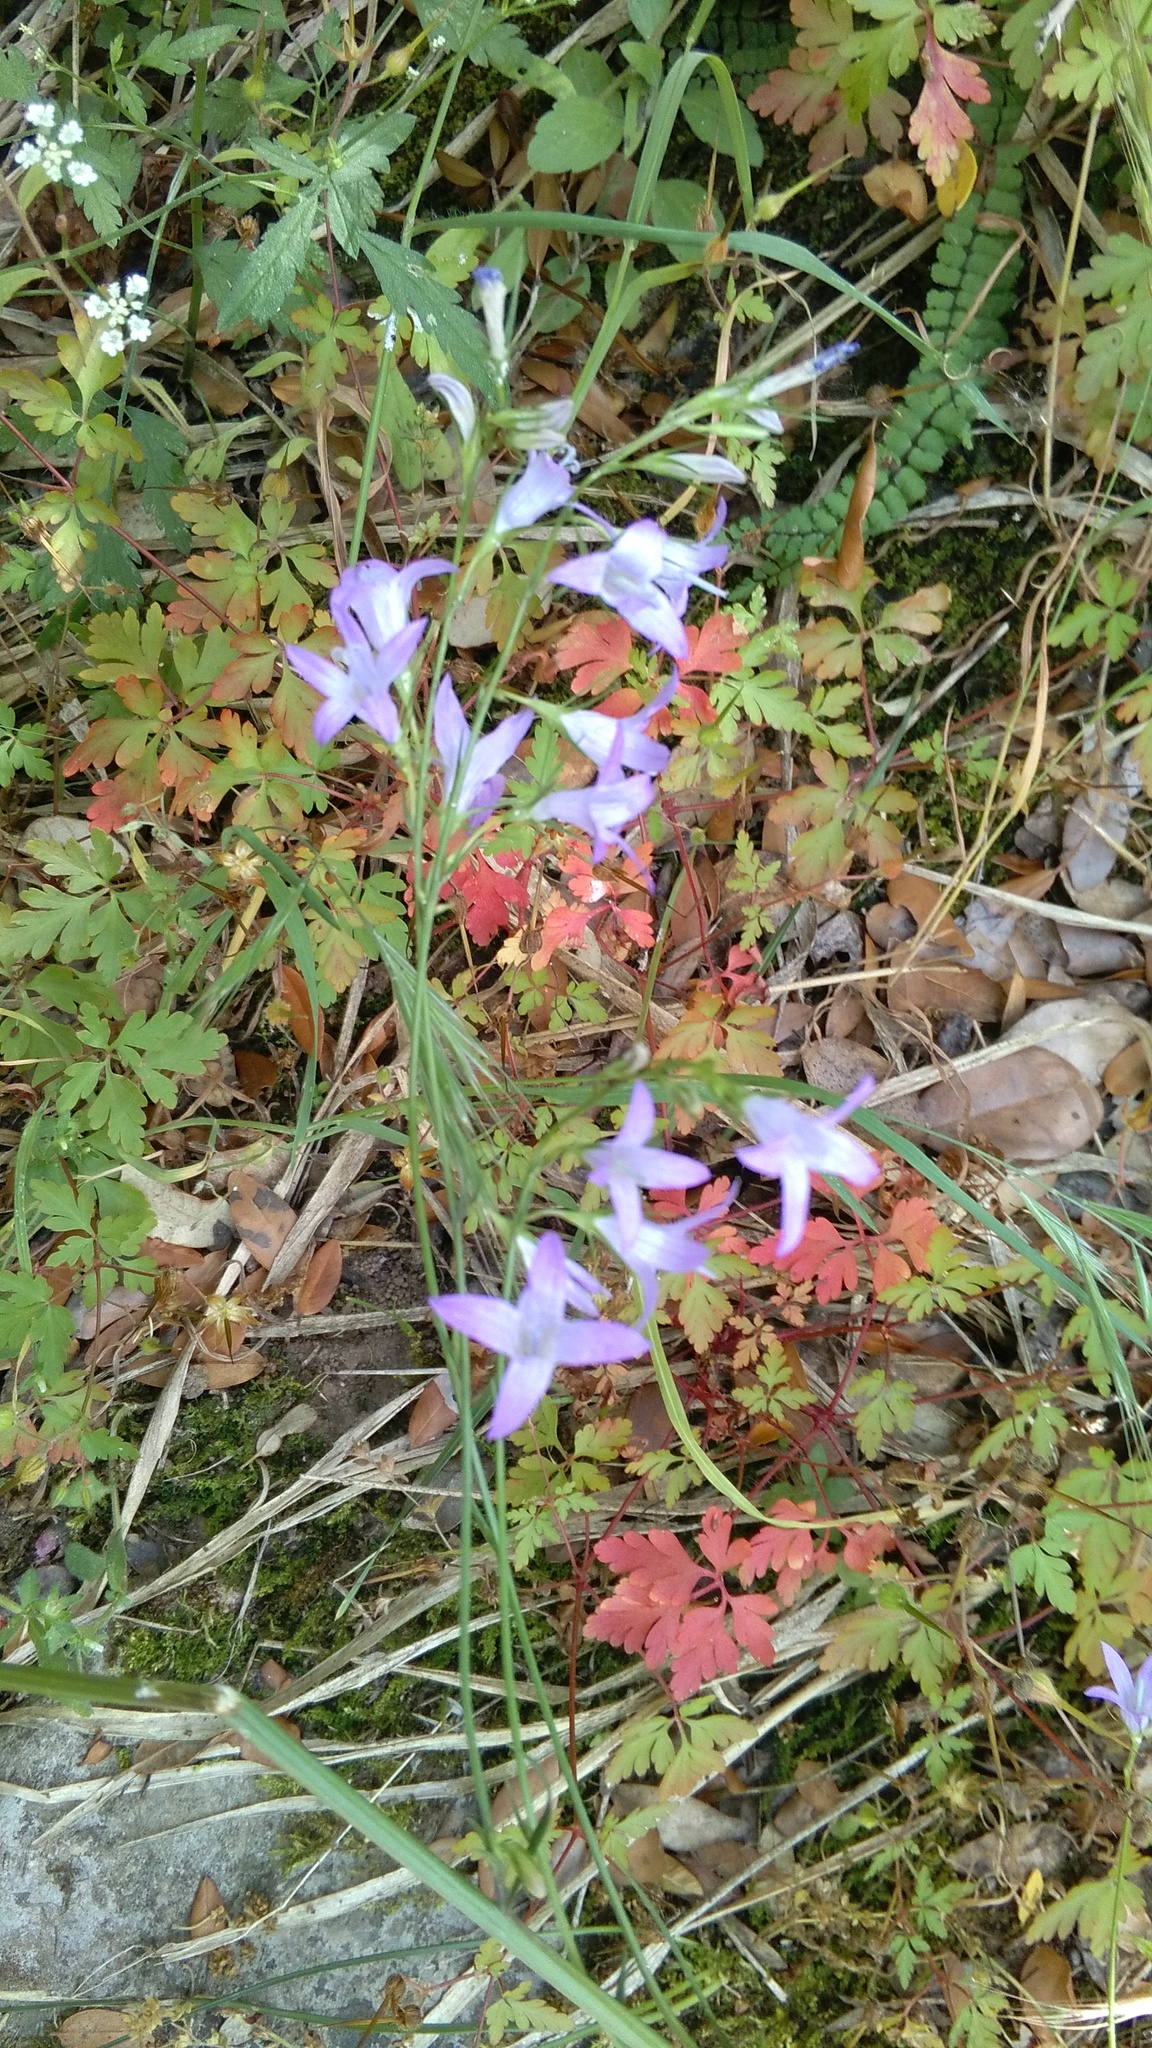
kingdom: Plantae
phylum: Tracheophyta
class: Magnoliopsida
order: Asterales
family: Campanulaceae
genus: Campanula
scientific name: Campanula rapunculus
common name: Rampion bellflower
